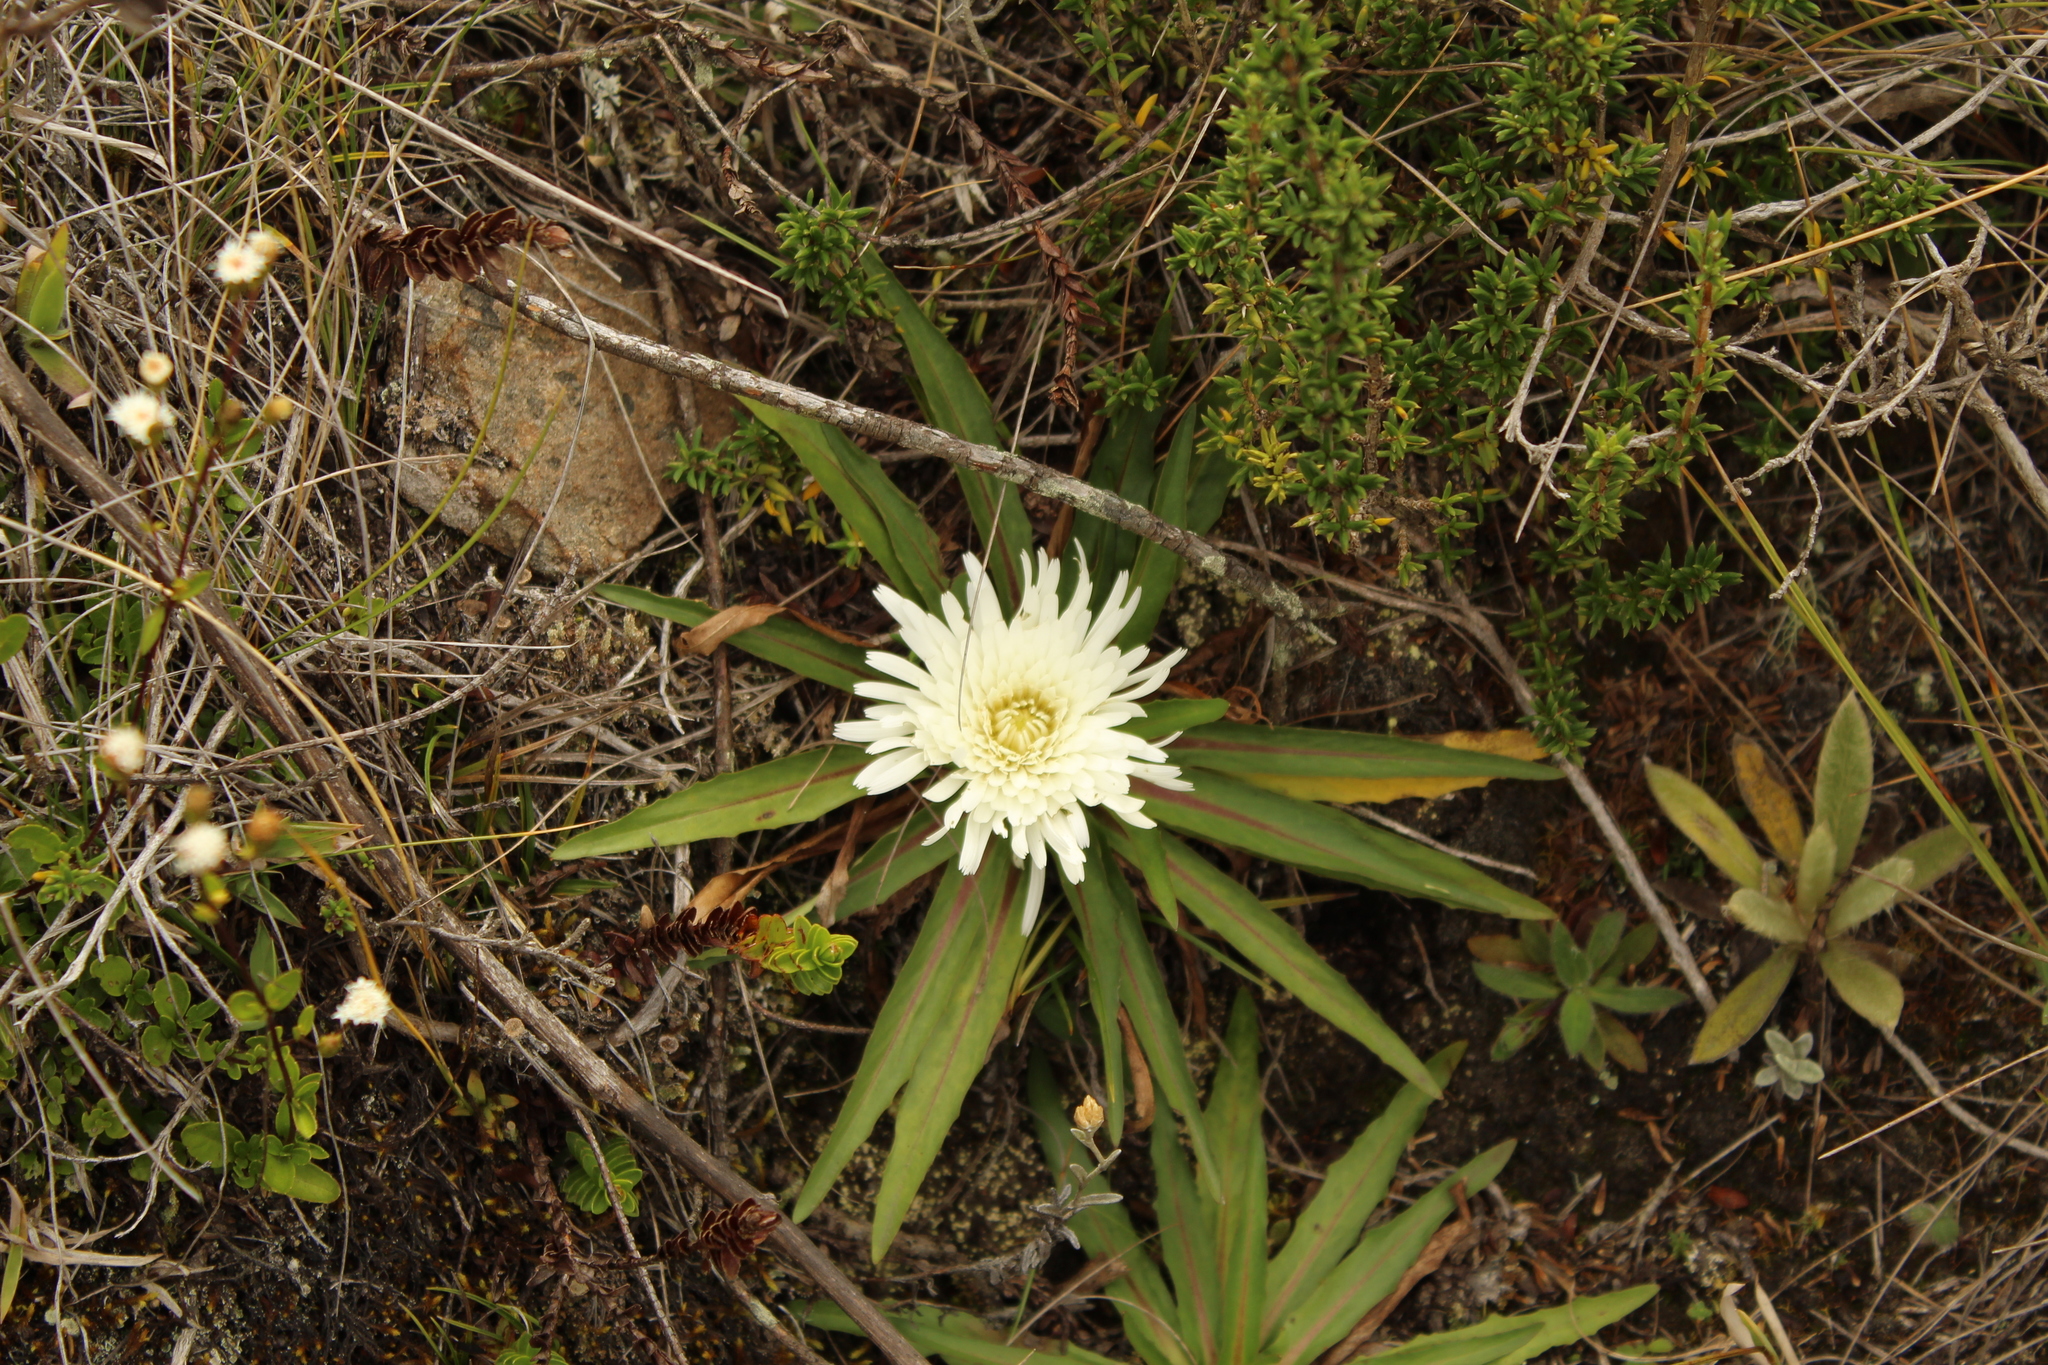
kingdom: Plantae
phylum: Tracheophyta
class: Magnoliopsida
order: Asterales
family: Asteraceae
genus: Hypochaeris
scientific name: Hypochaeris sessiliflora
